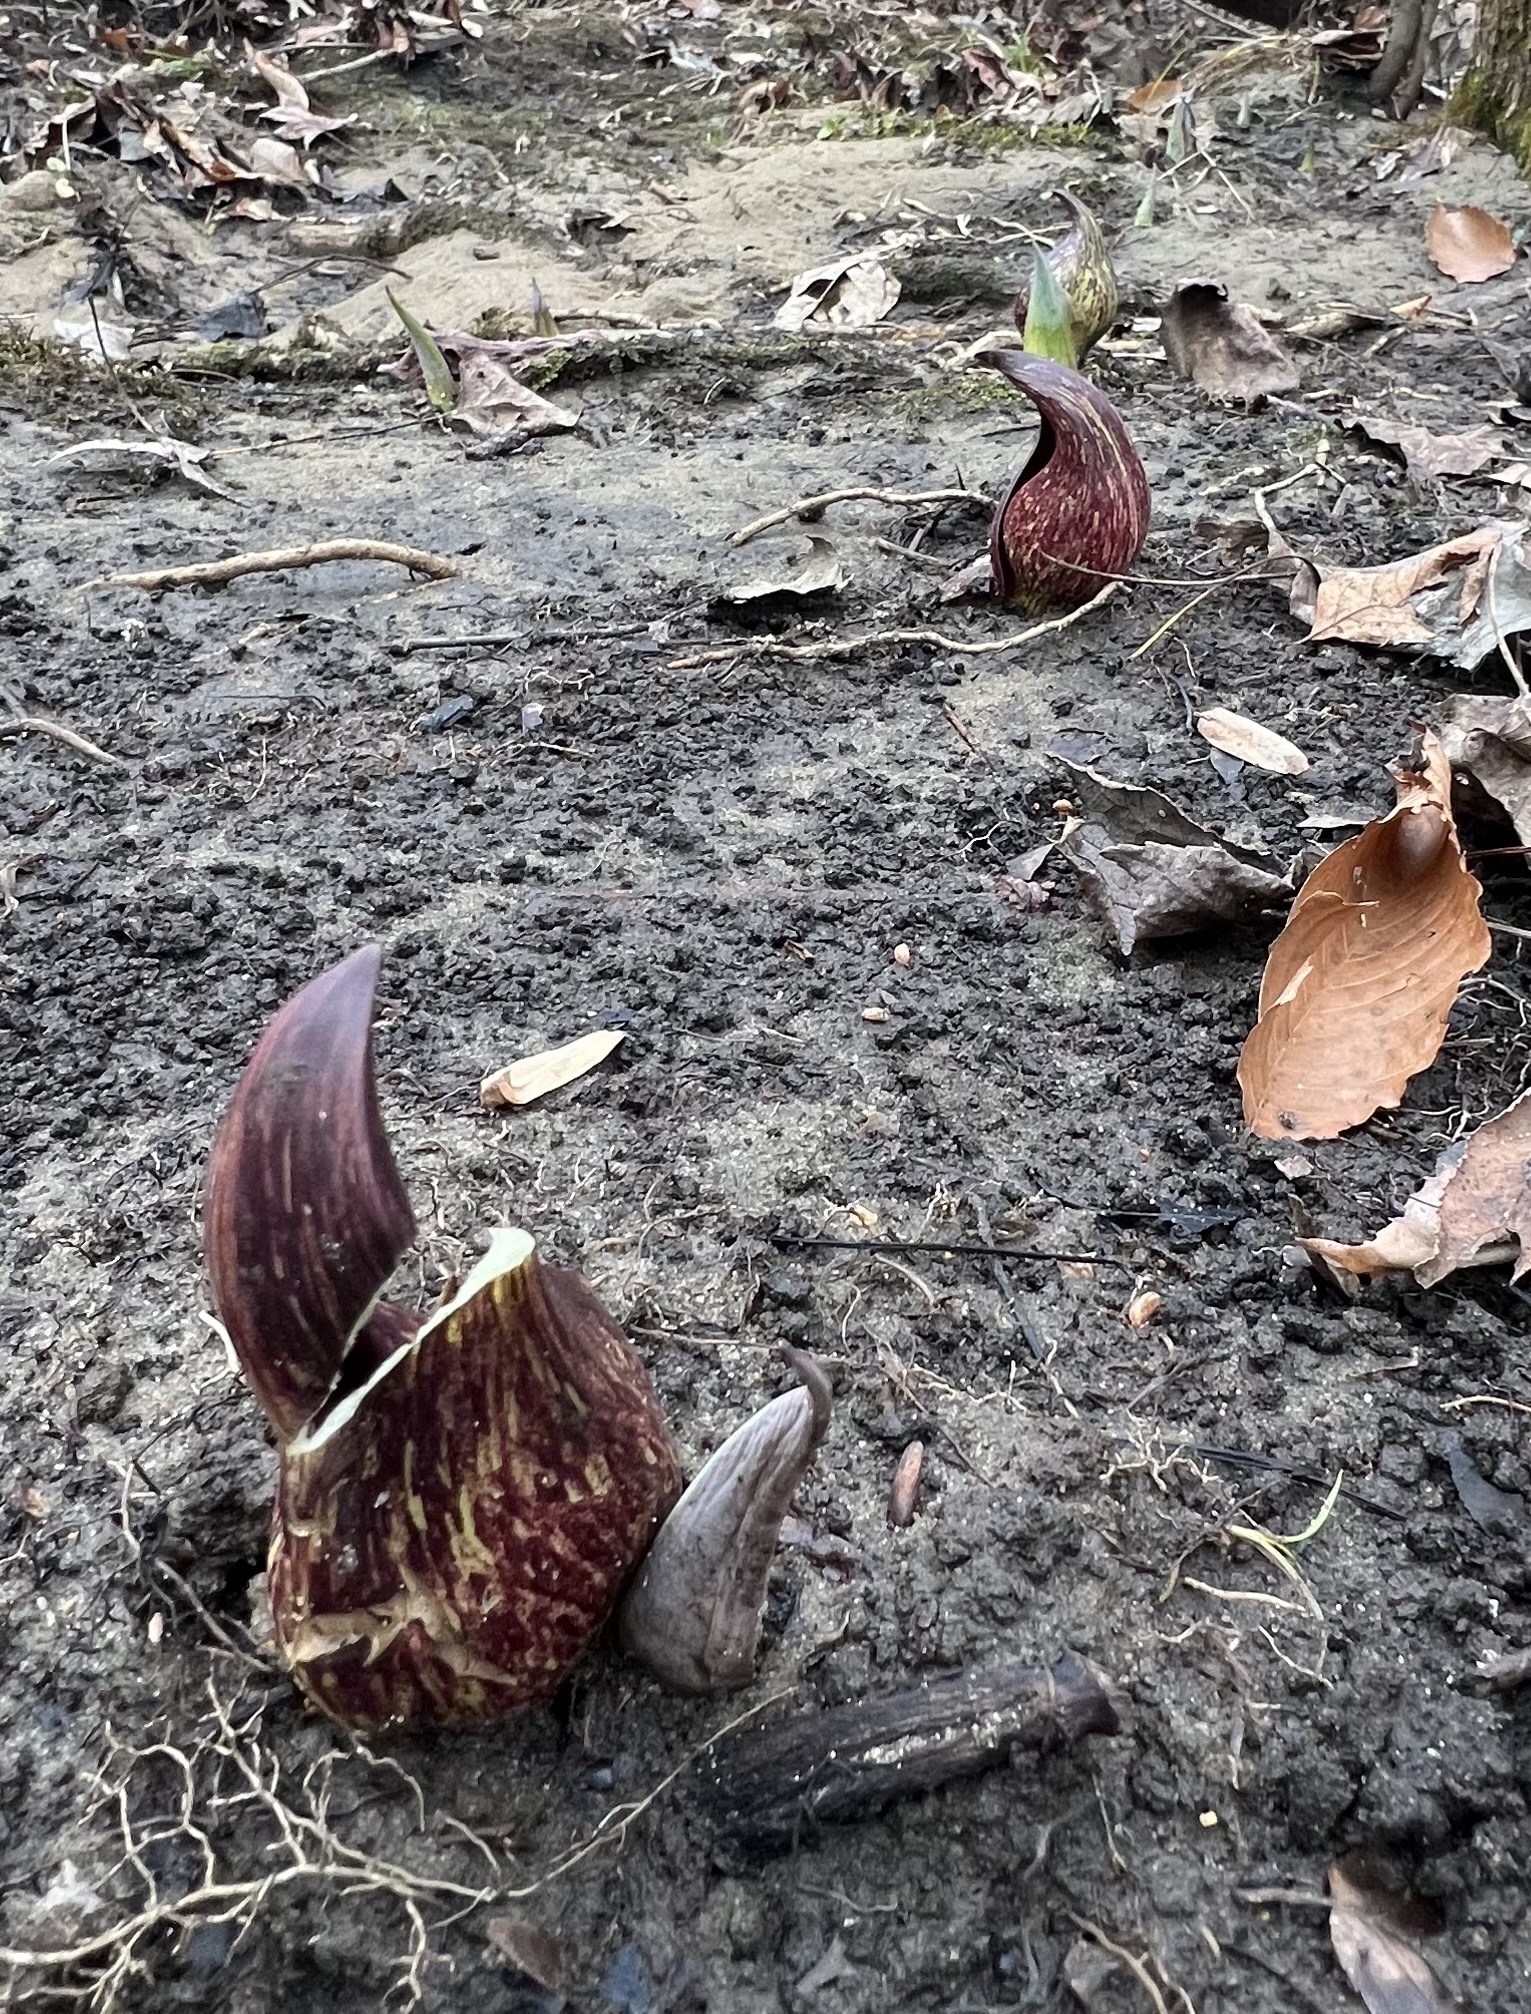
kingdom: Plantae
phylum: Tracheophyta
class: Liliopsida
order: Alismatales
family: Araceae
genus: Symplocarpus
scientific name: Symplocarpus foetidus
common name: Eastern skunk cabbage
